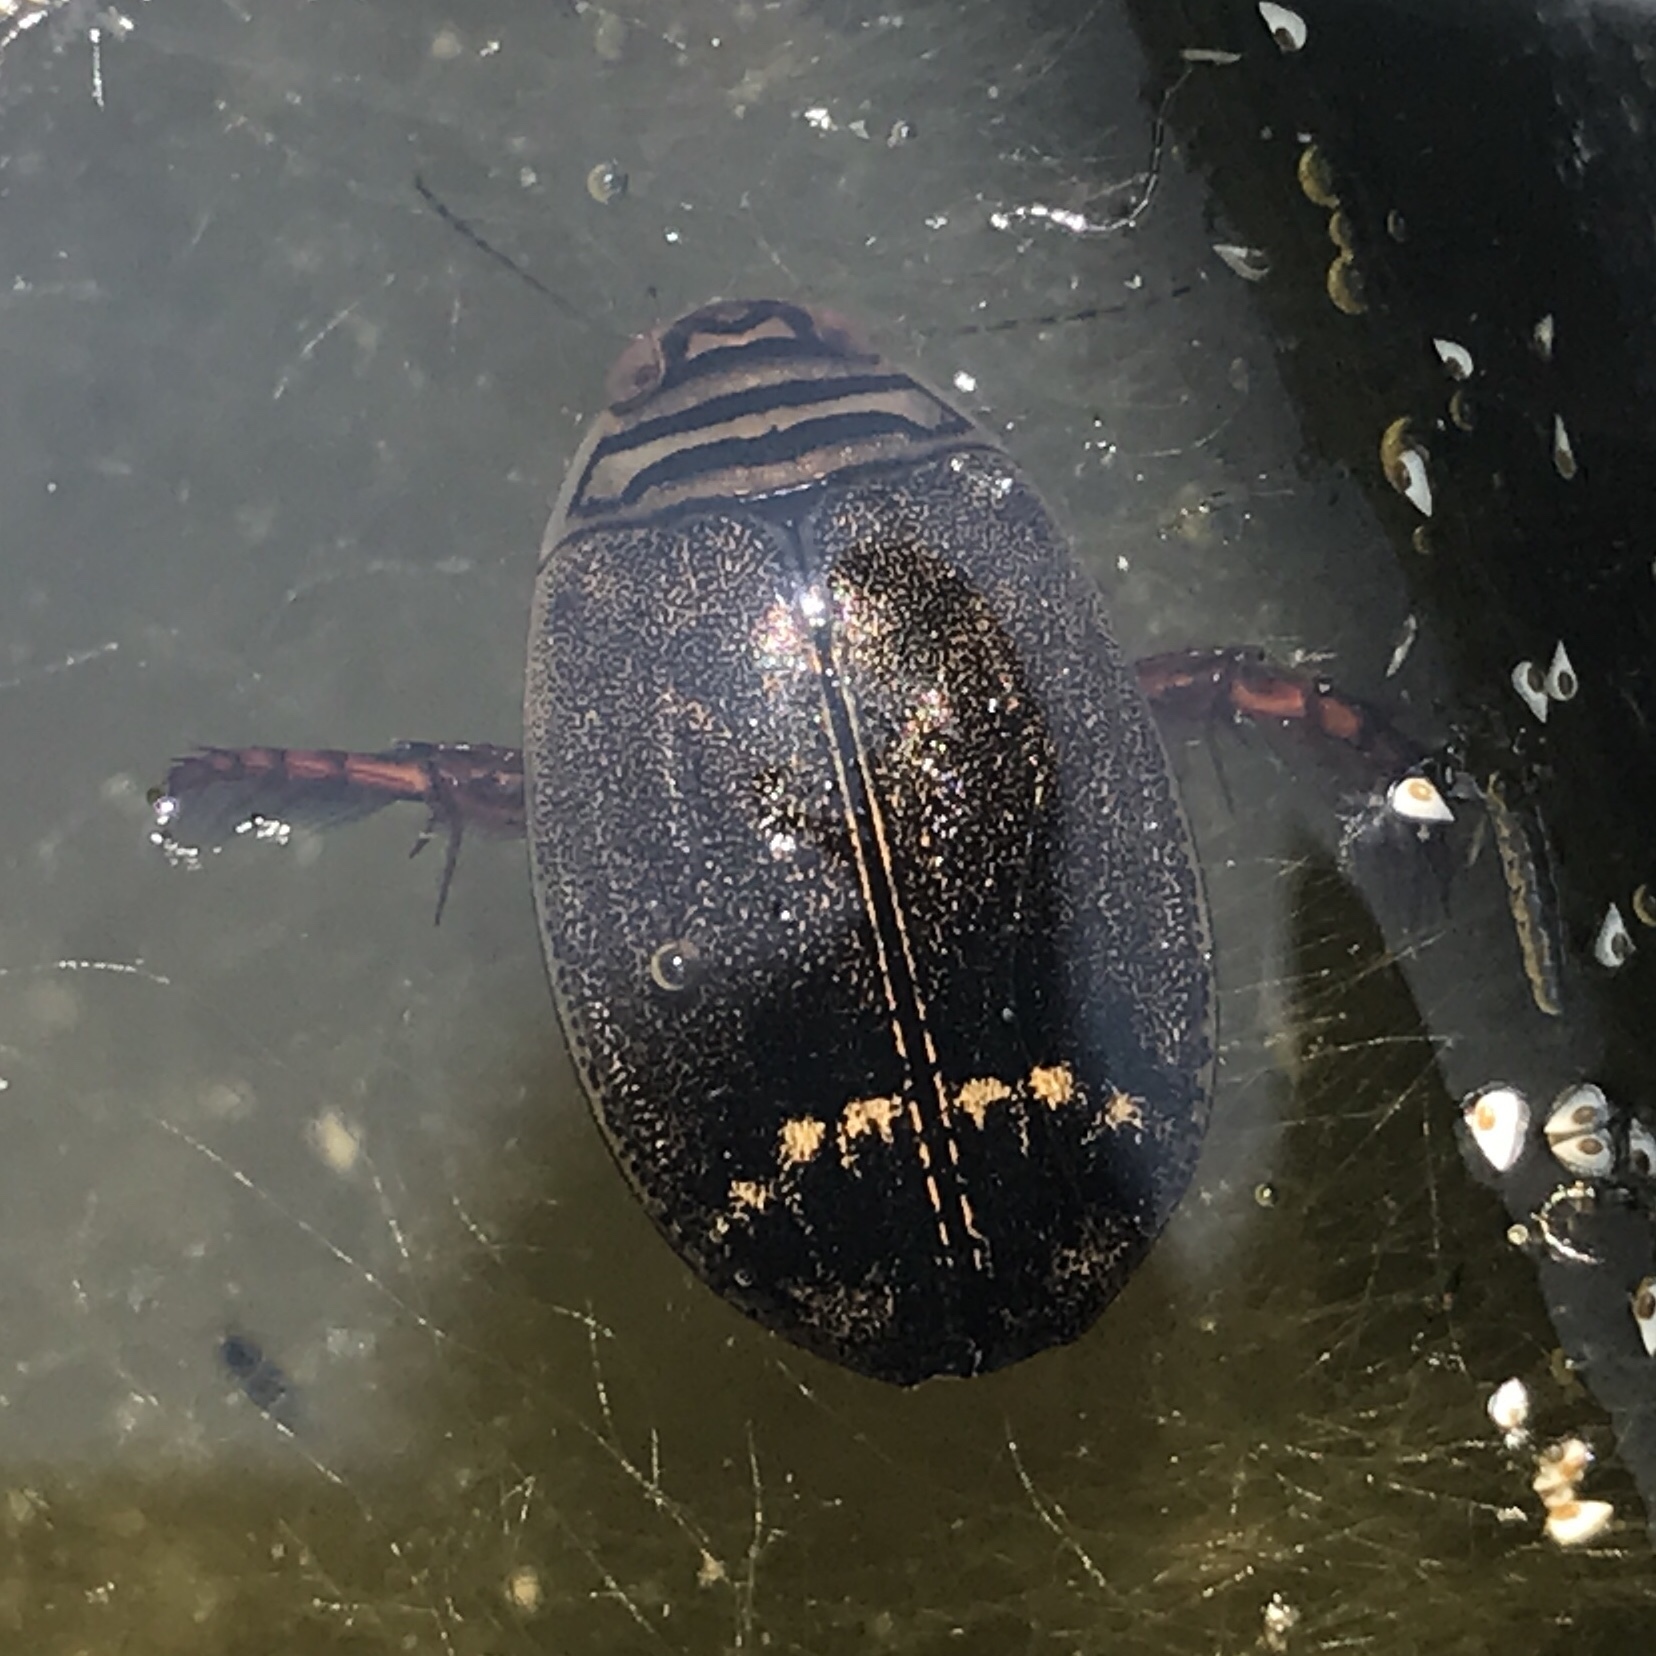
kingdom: Animalia
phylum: Arthropoda
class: Insecta
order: Coleoptera
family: Dytiscidae
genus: Acilius
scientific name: Acilius semisulcatus
